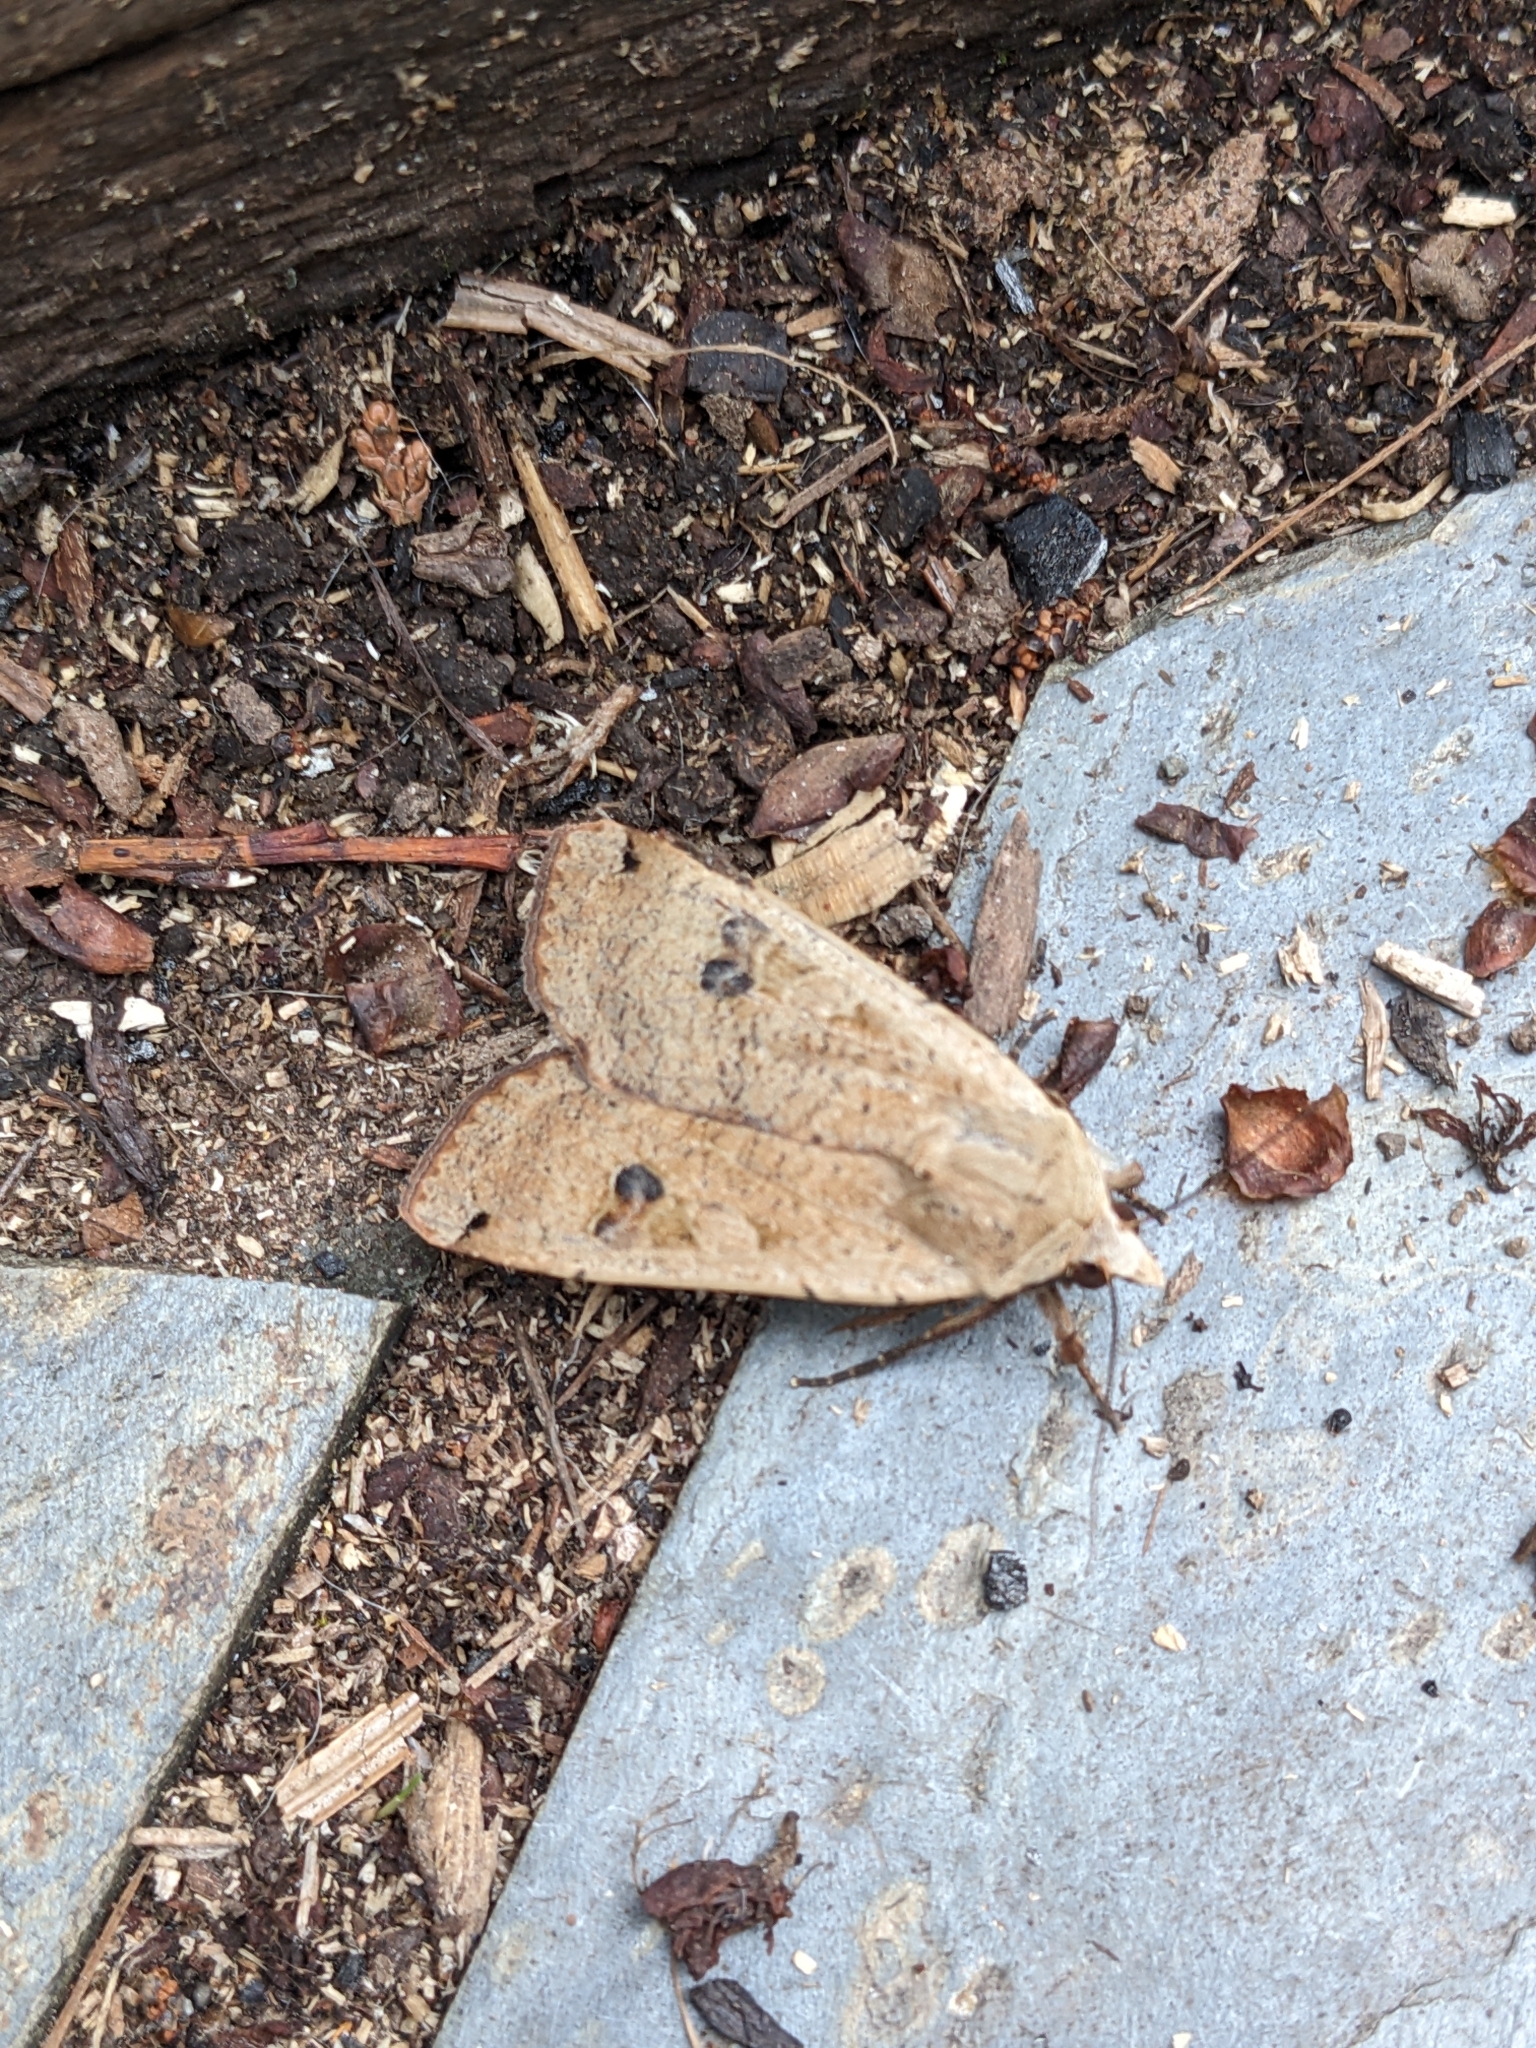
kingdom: Animalia
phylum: Arthropoda
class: Insecta
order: Lepidoptera
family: Noctuidae
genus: Noctua
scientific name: Noctua pronuba
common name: Large yellow underwing
